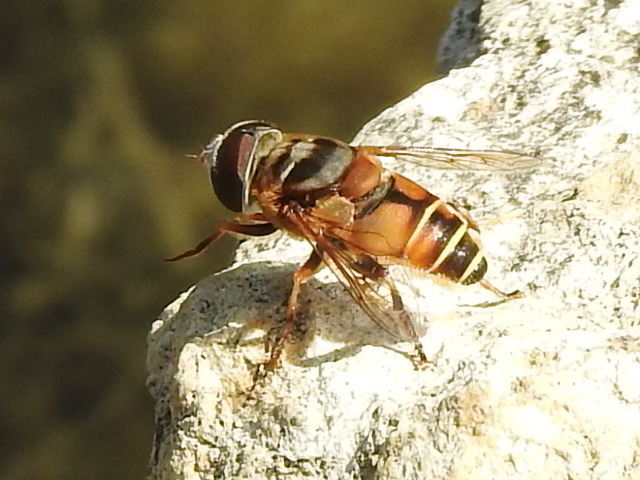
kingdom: Animalia
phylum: Arthropoda
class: Insecta
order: Diptera
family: Syrphidae
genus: Palpada
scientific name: Palpada vinetorum
